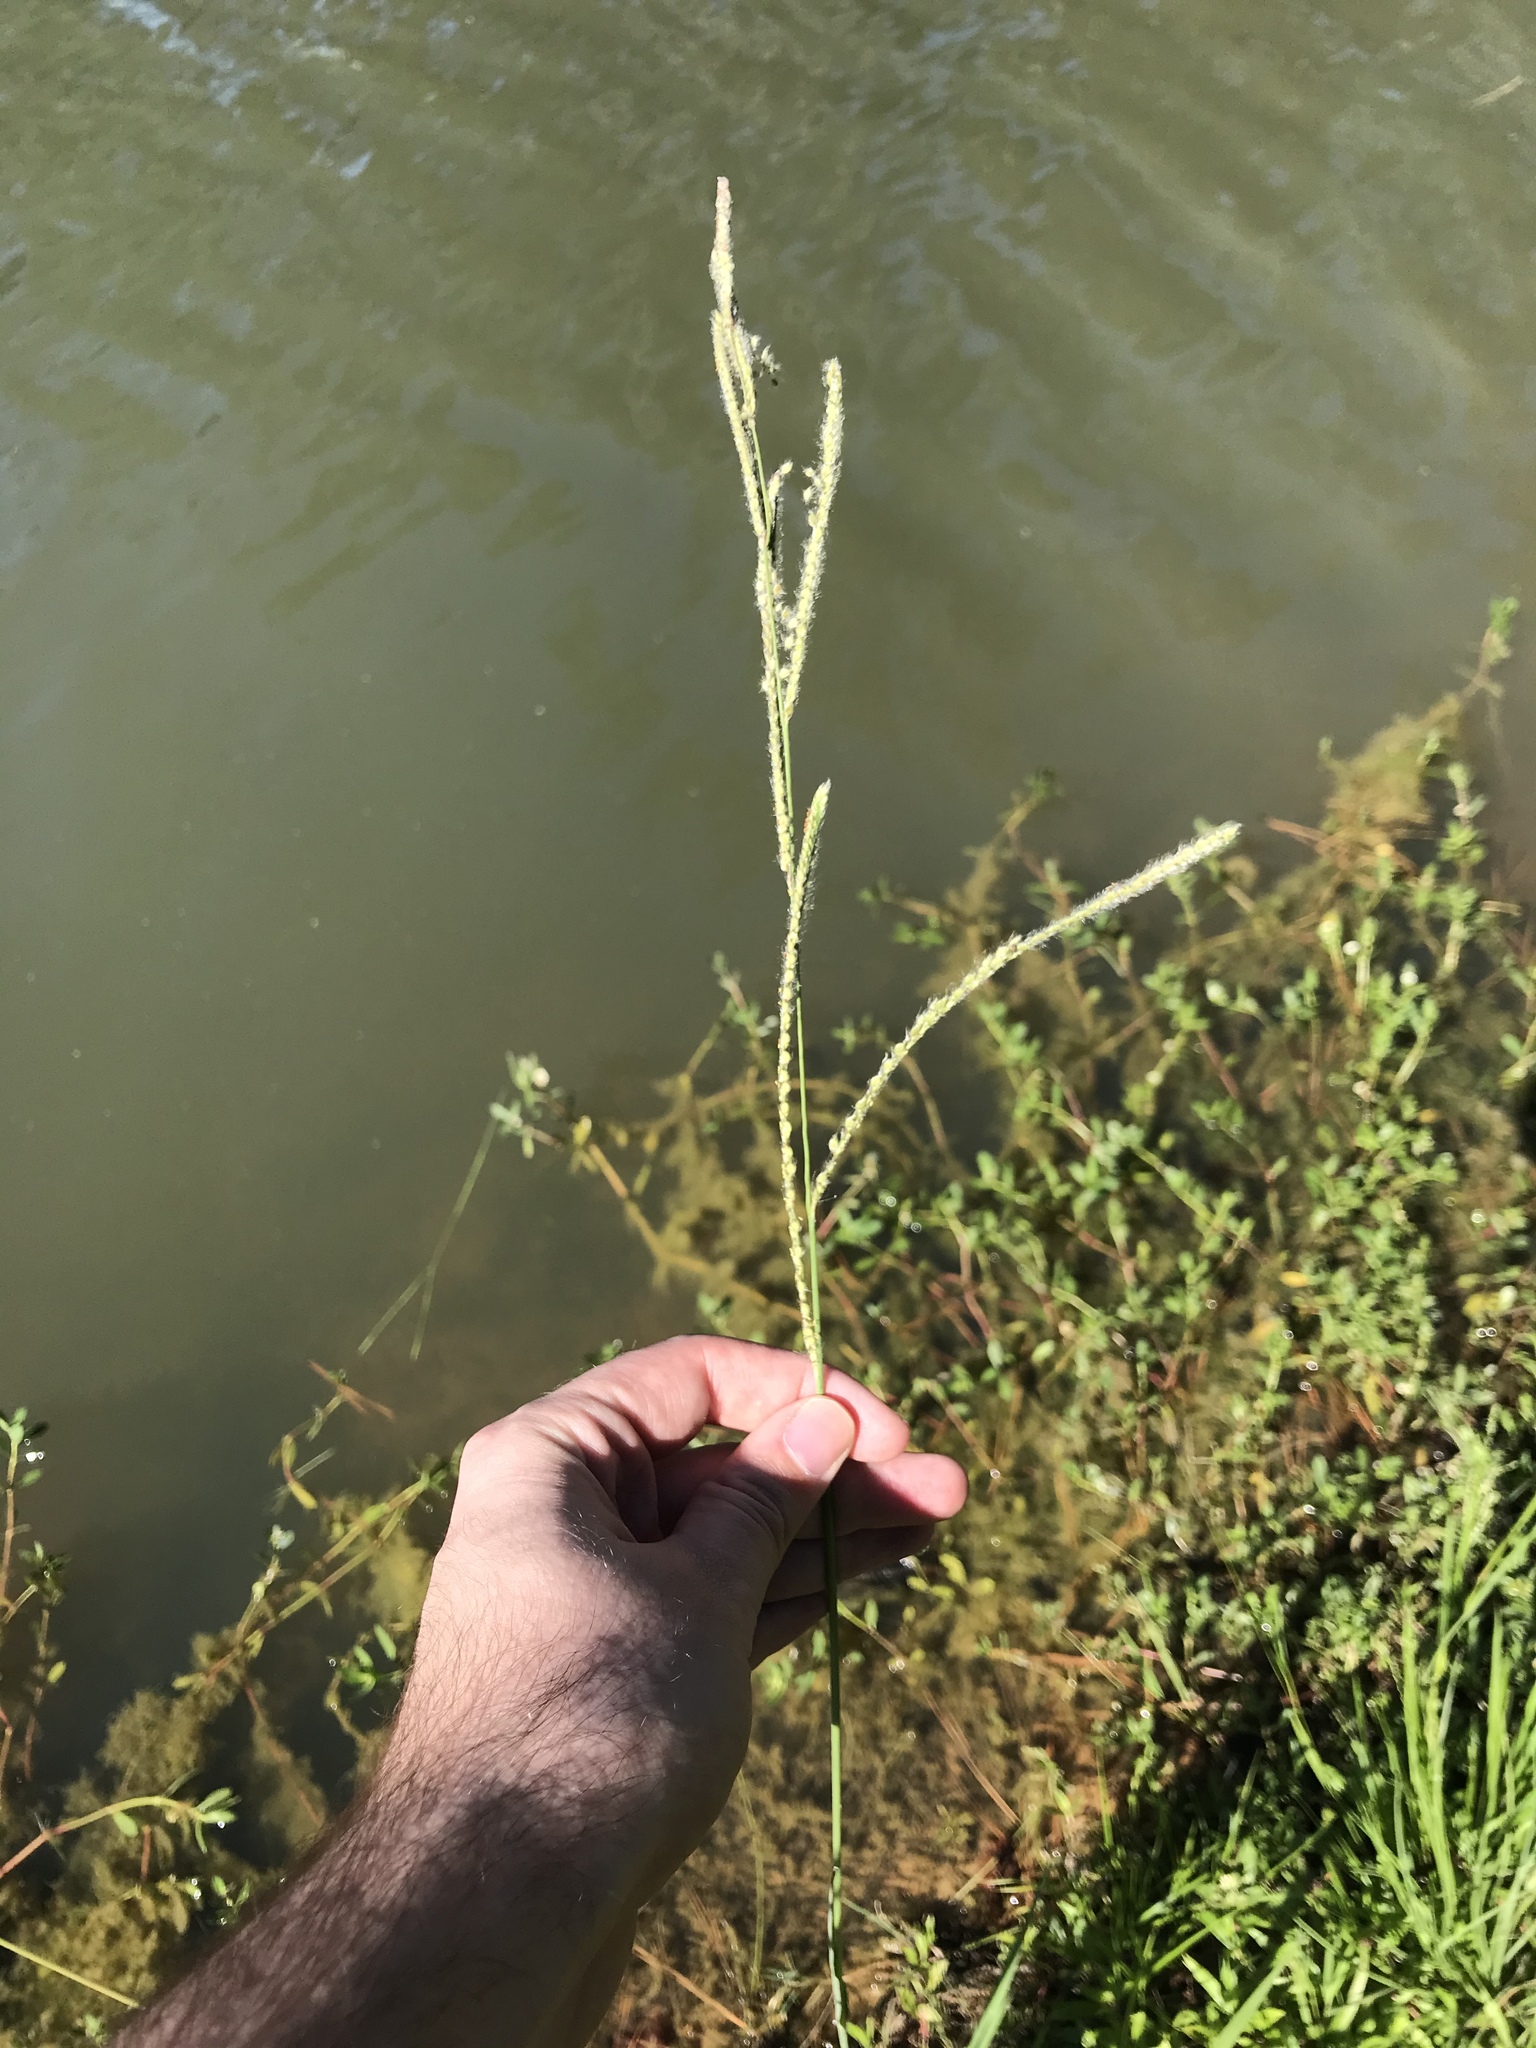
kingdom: Plantae
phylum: Tracheophyta
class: Liliopsida
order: Poales
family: Poaceae
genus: Paspalum
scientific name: Paspalum urvillei
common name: Vasey's grass
